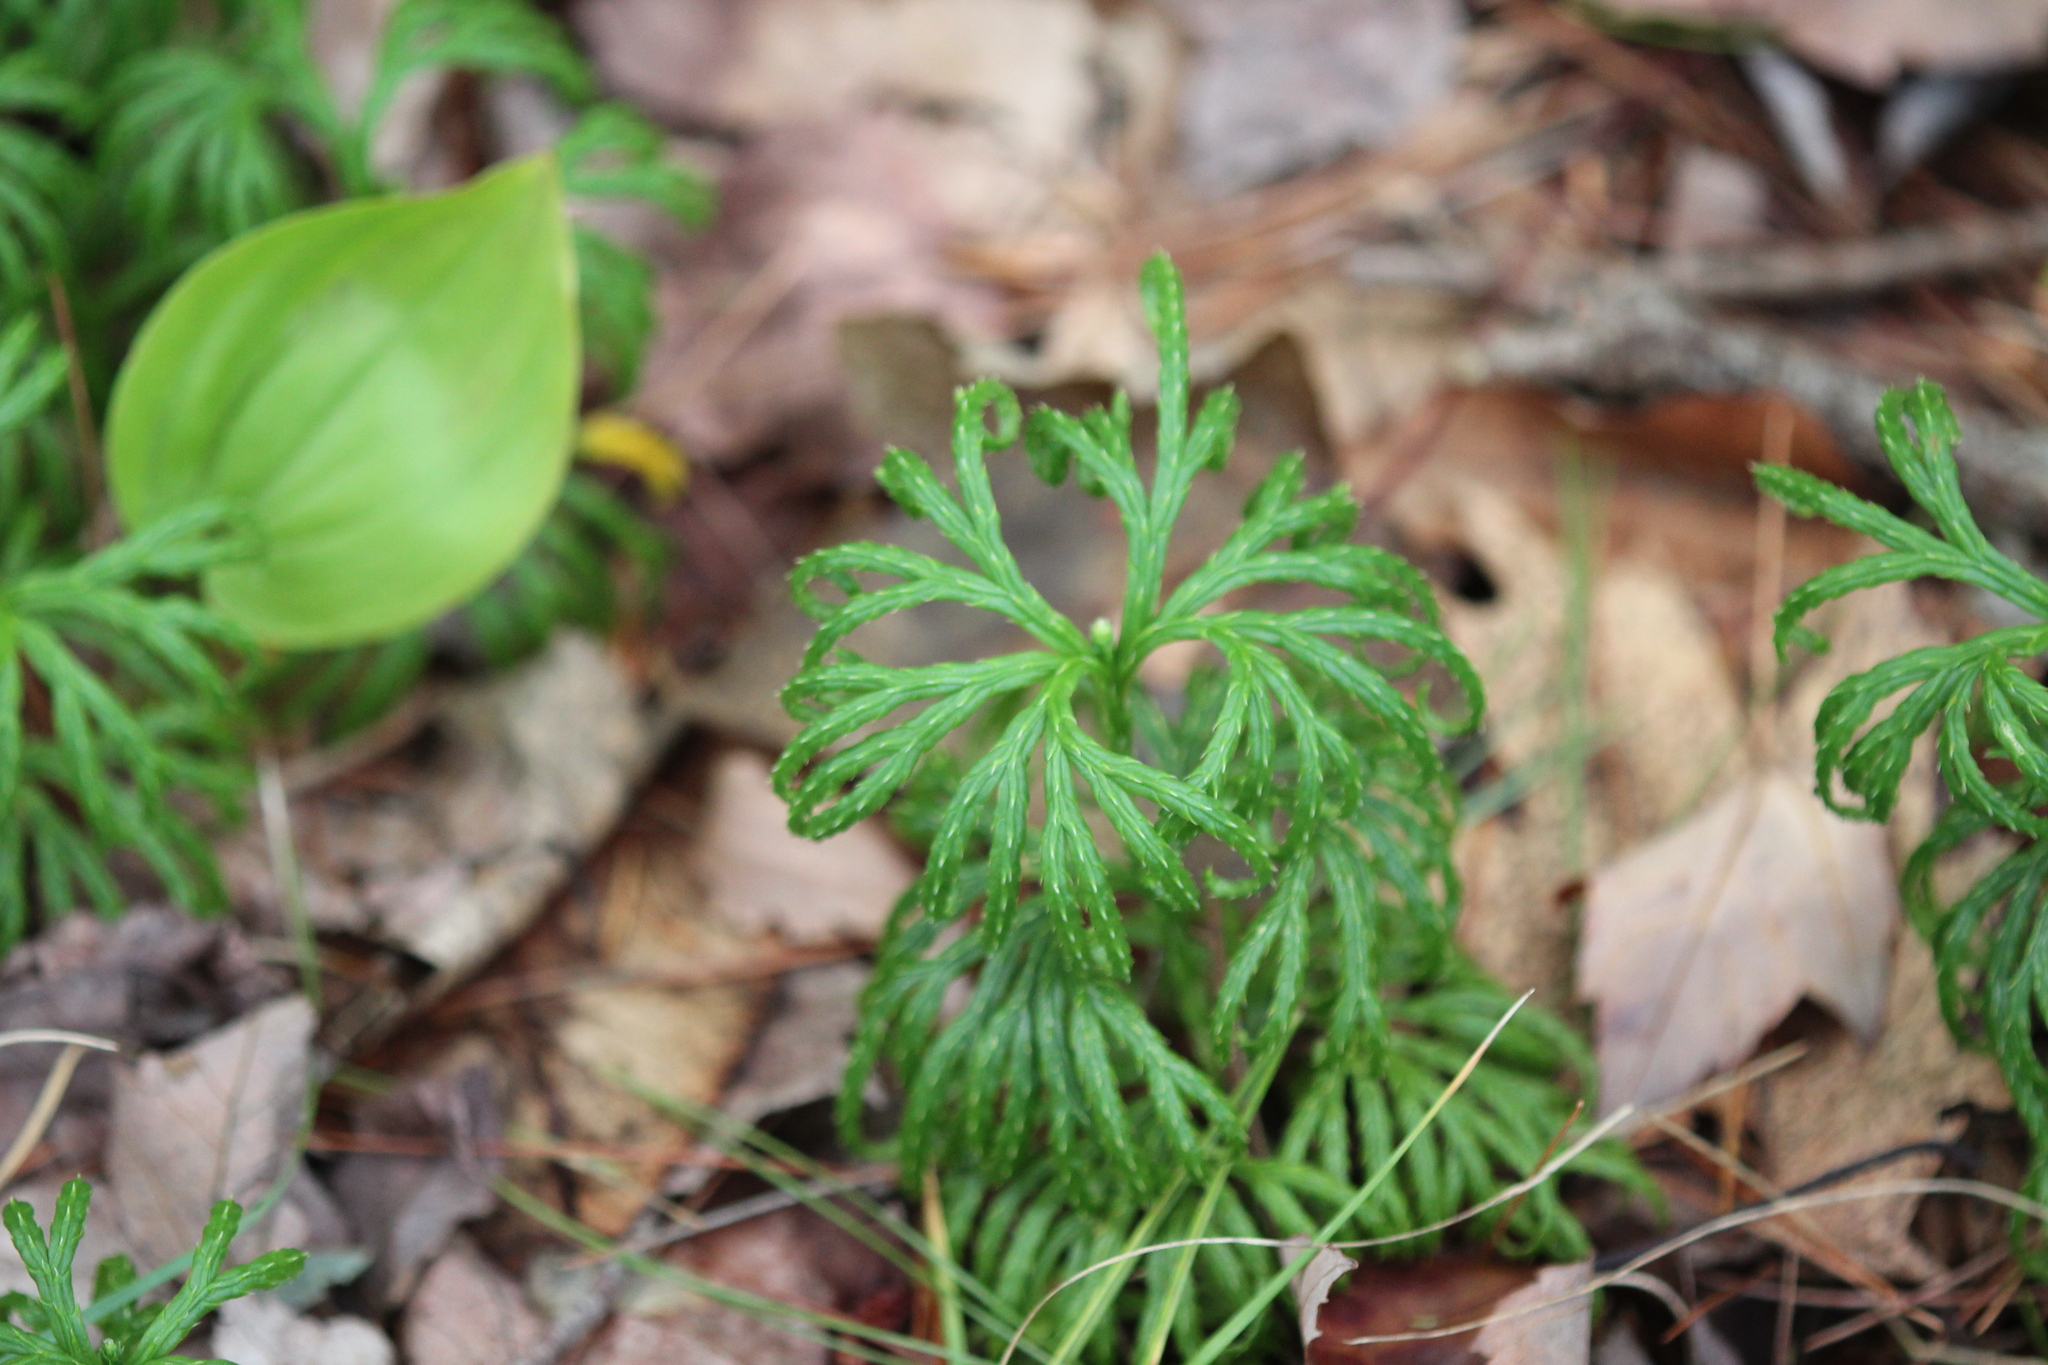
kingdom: Plantae
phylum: Tracheophyta
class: Lycopodiopsida
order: Lycopodiales
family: Lycopodiaceae
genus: Diphasiastrum
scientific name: Diphasiastrum digitatum
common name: Southern running-pine
